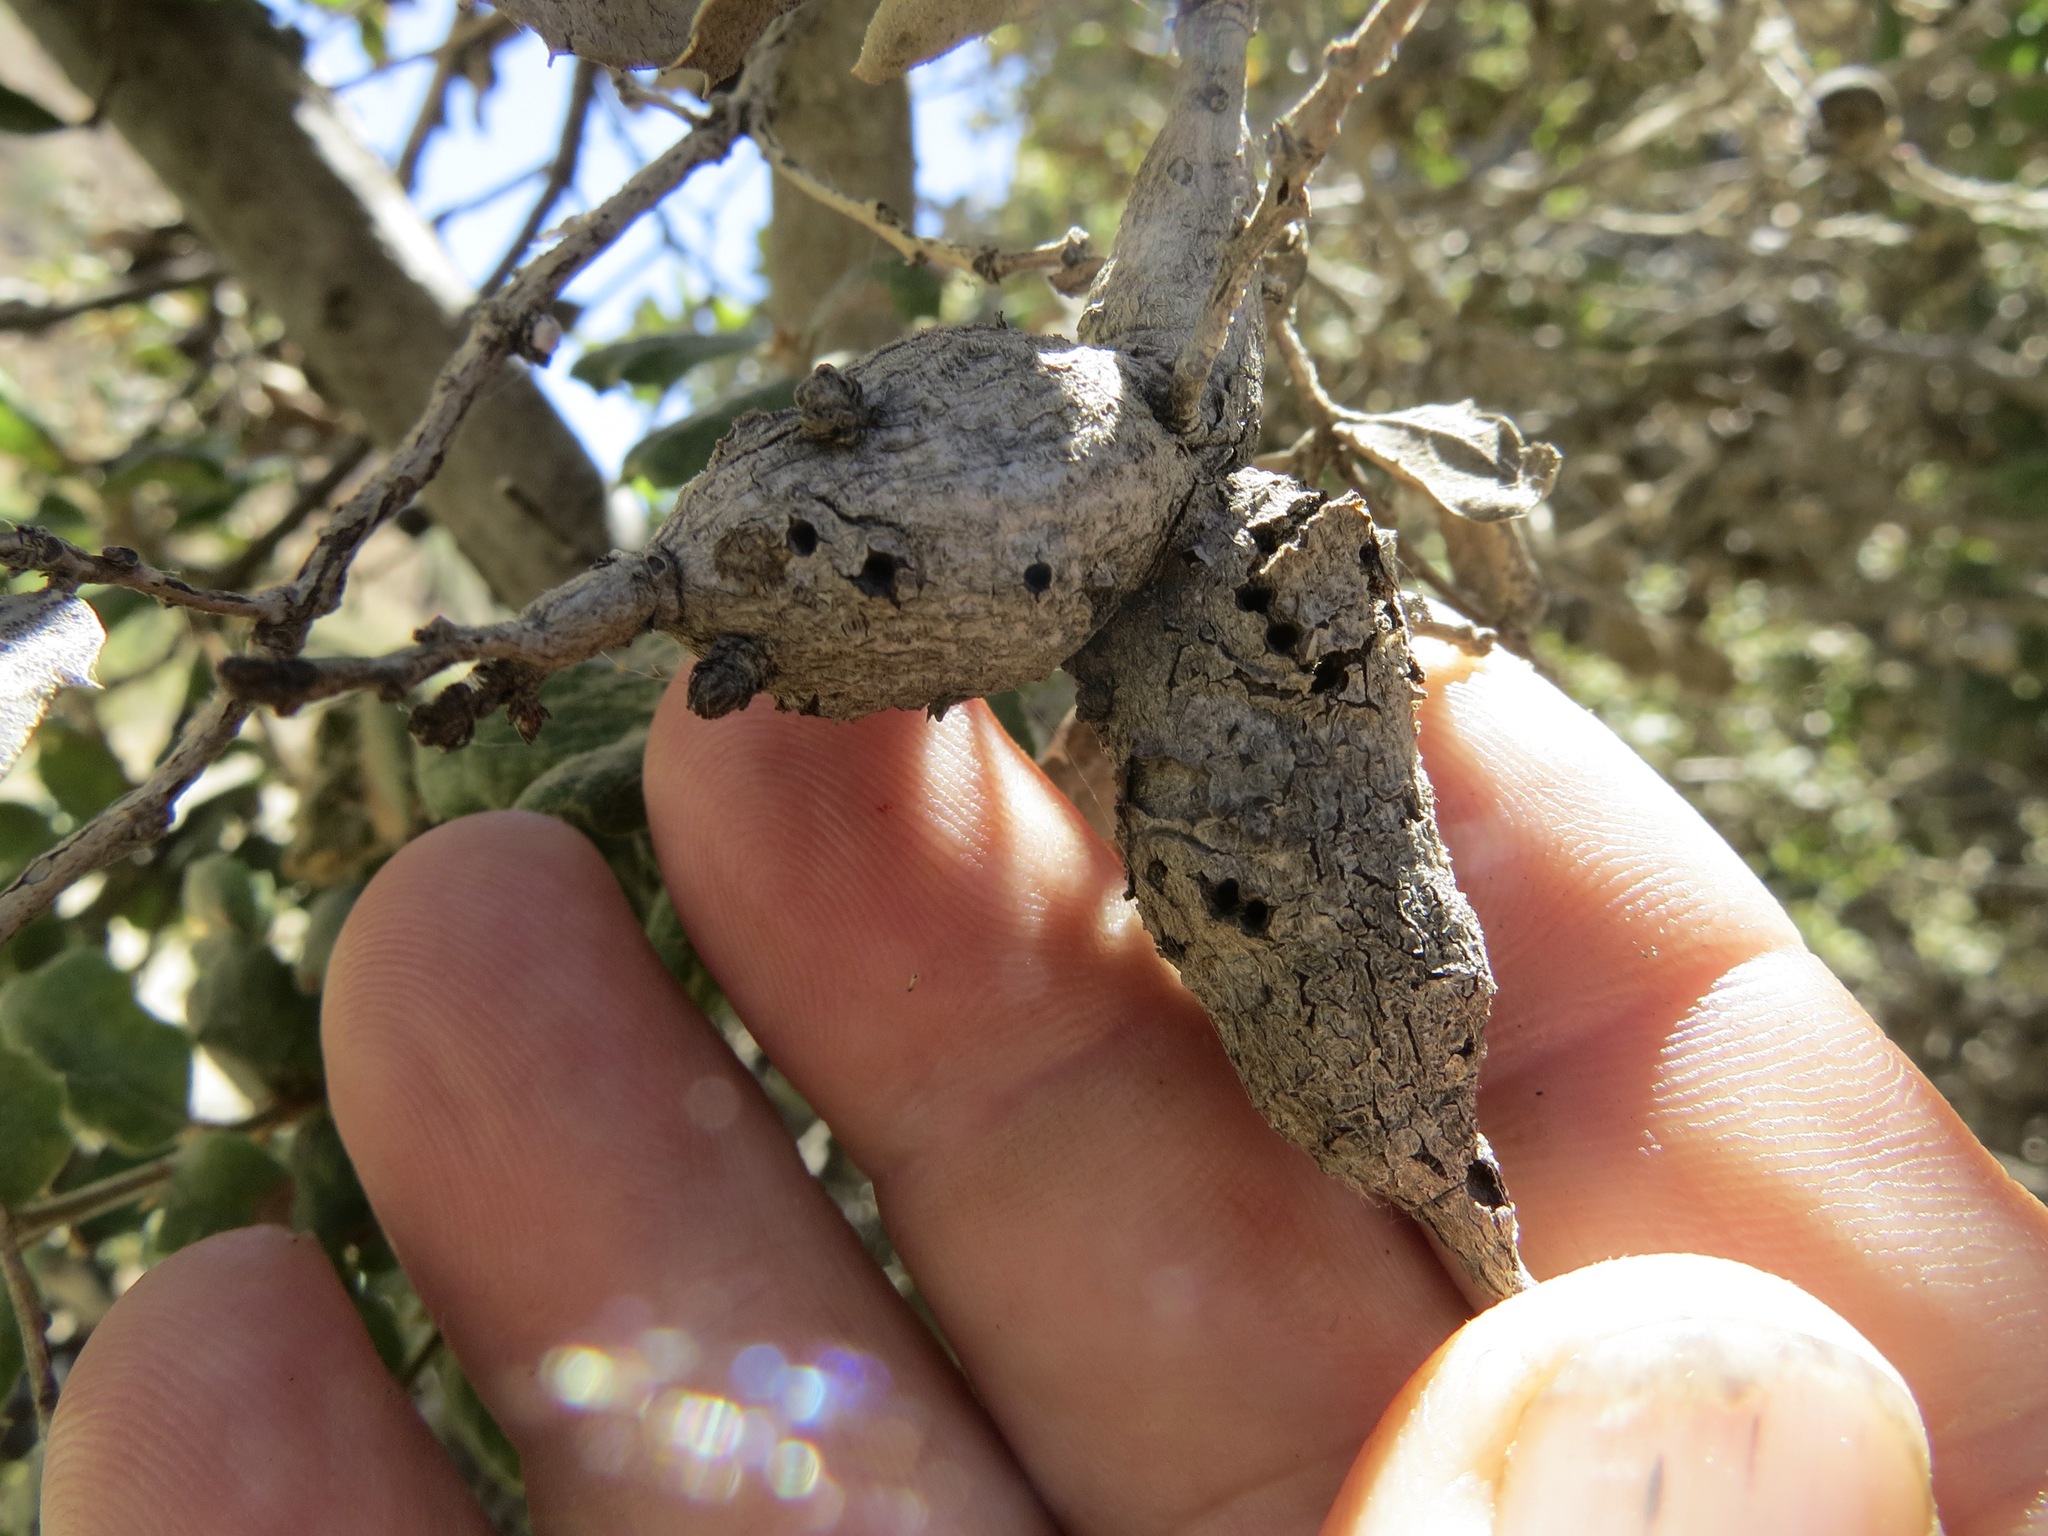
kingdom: Animalia
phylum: Arthropoda
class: Insecta
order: Hymenoptera
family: Cynipidae
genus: Andricus
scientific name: Andricus
